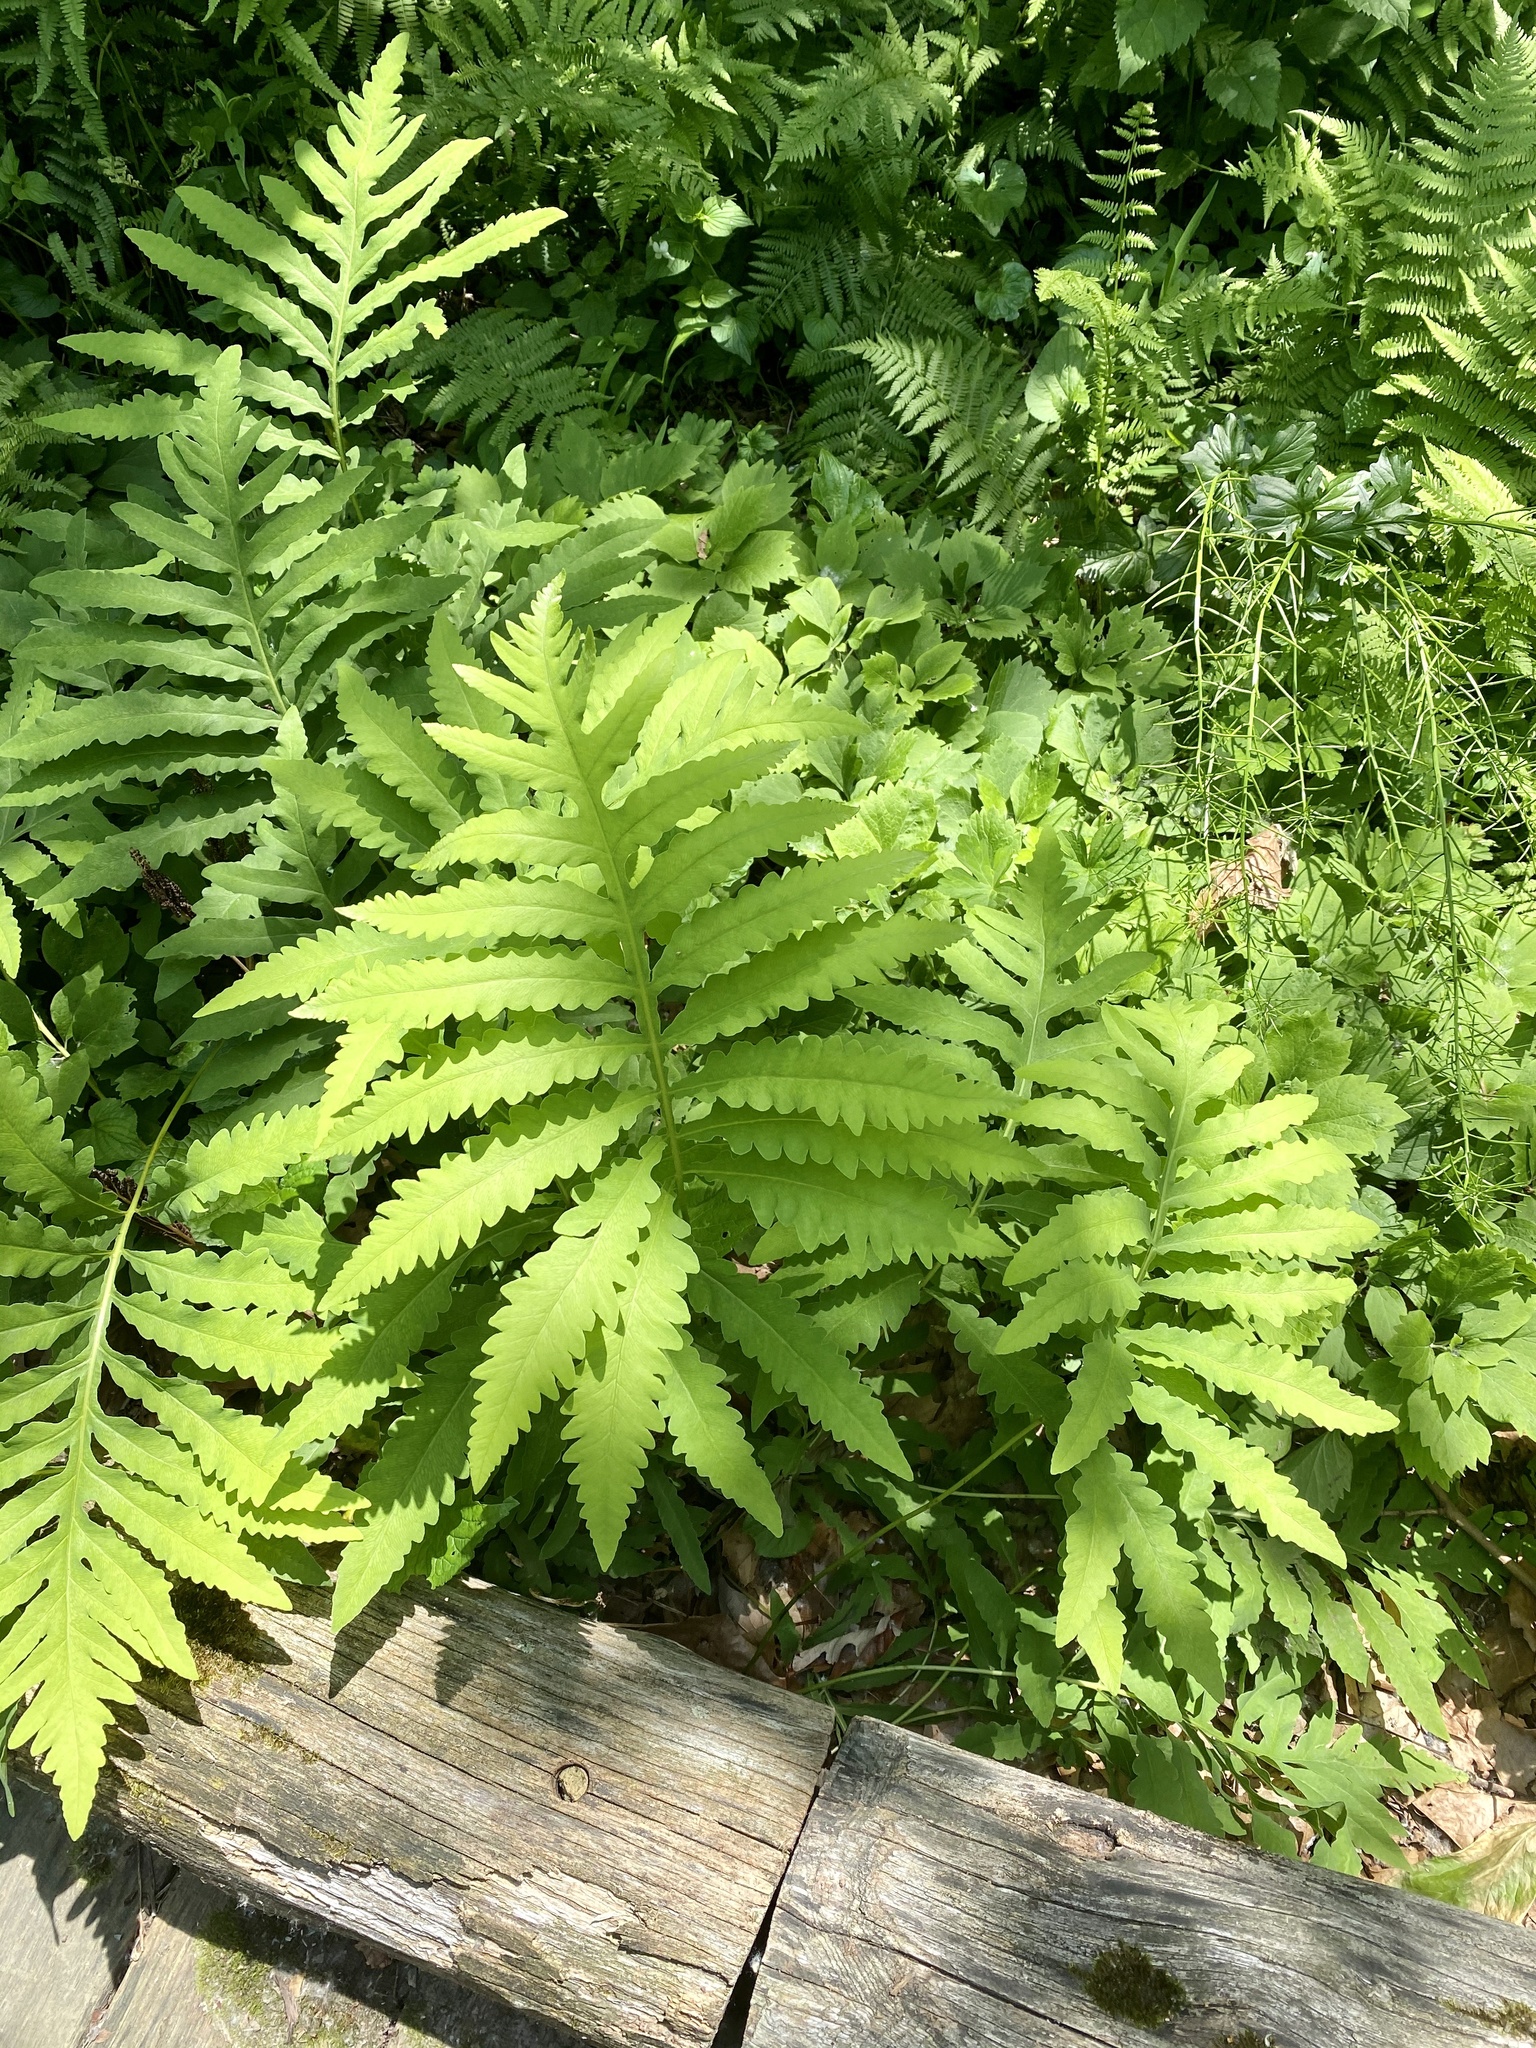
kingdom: Plantae
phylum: Tracheophyta
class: Polypodiopsida
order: Polypodiales
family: Onocleaceae
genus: Onoclea
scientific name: Onoclea sensibilis
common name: Sensitive fern
